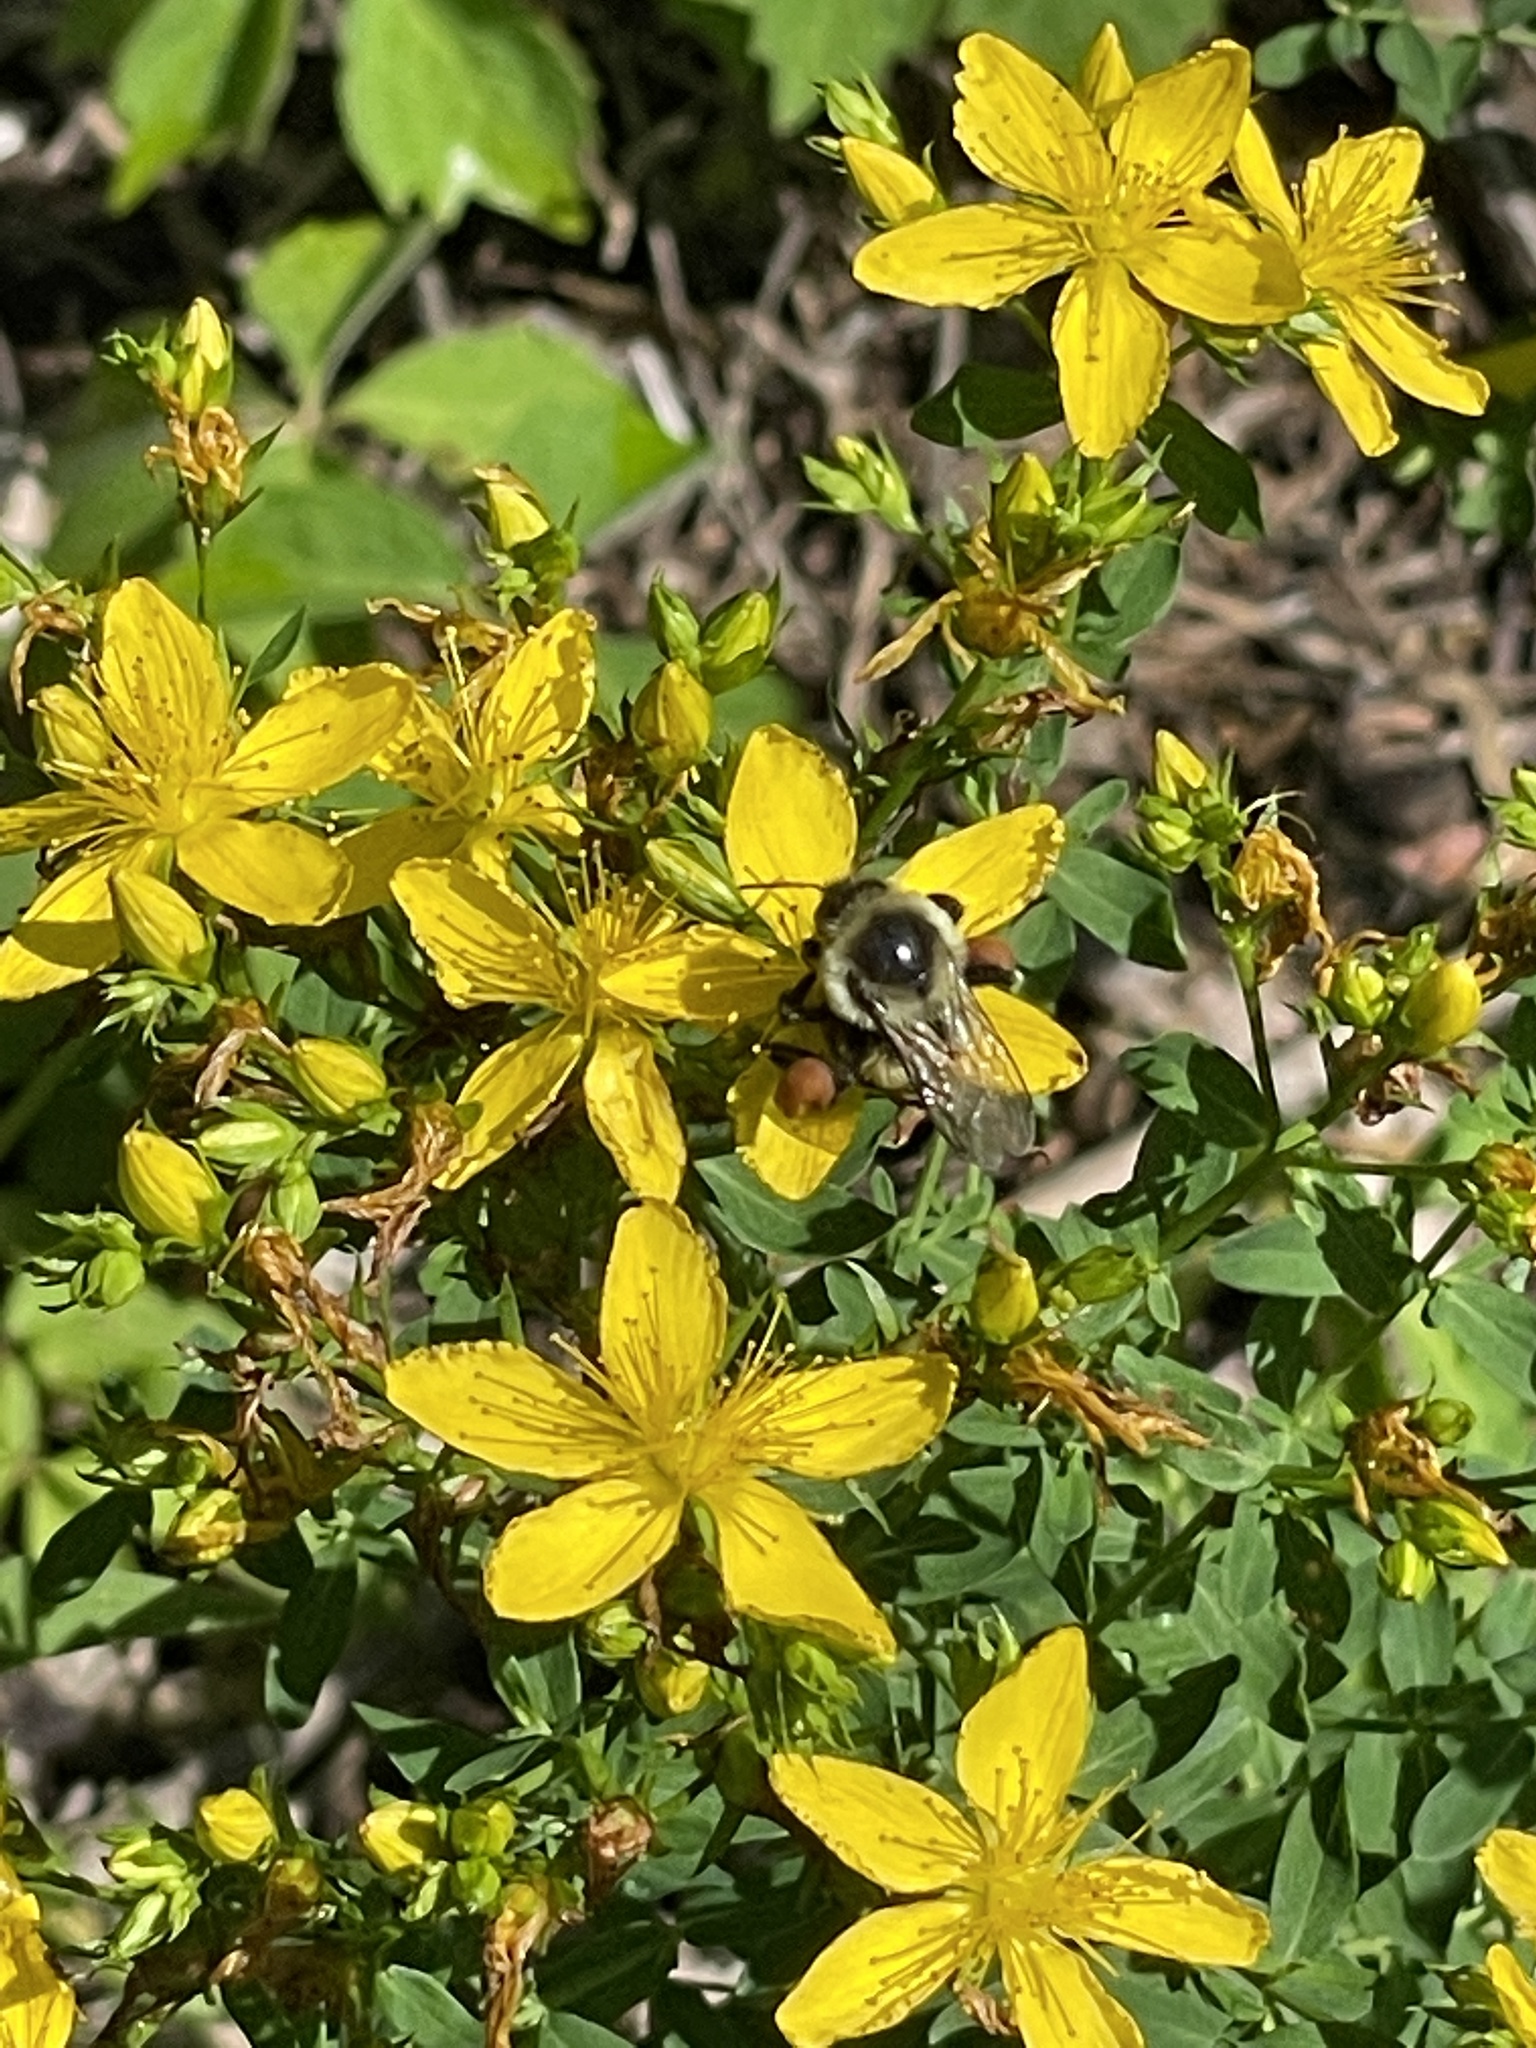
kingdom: Animalia
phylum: Arthropoda
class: Insecta
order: Hymenoptera
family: Apidae
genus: Bombus
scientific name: Bombus impatiens
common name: Common eastern bumble bee
